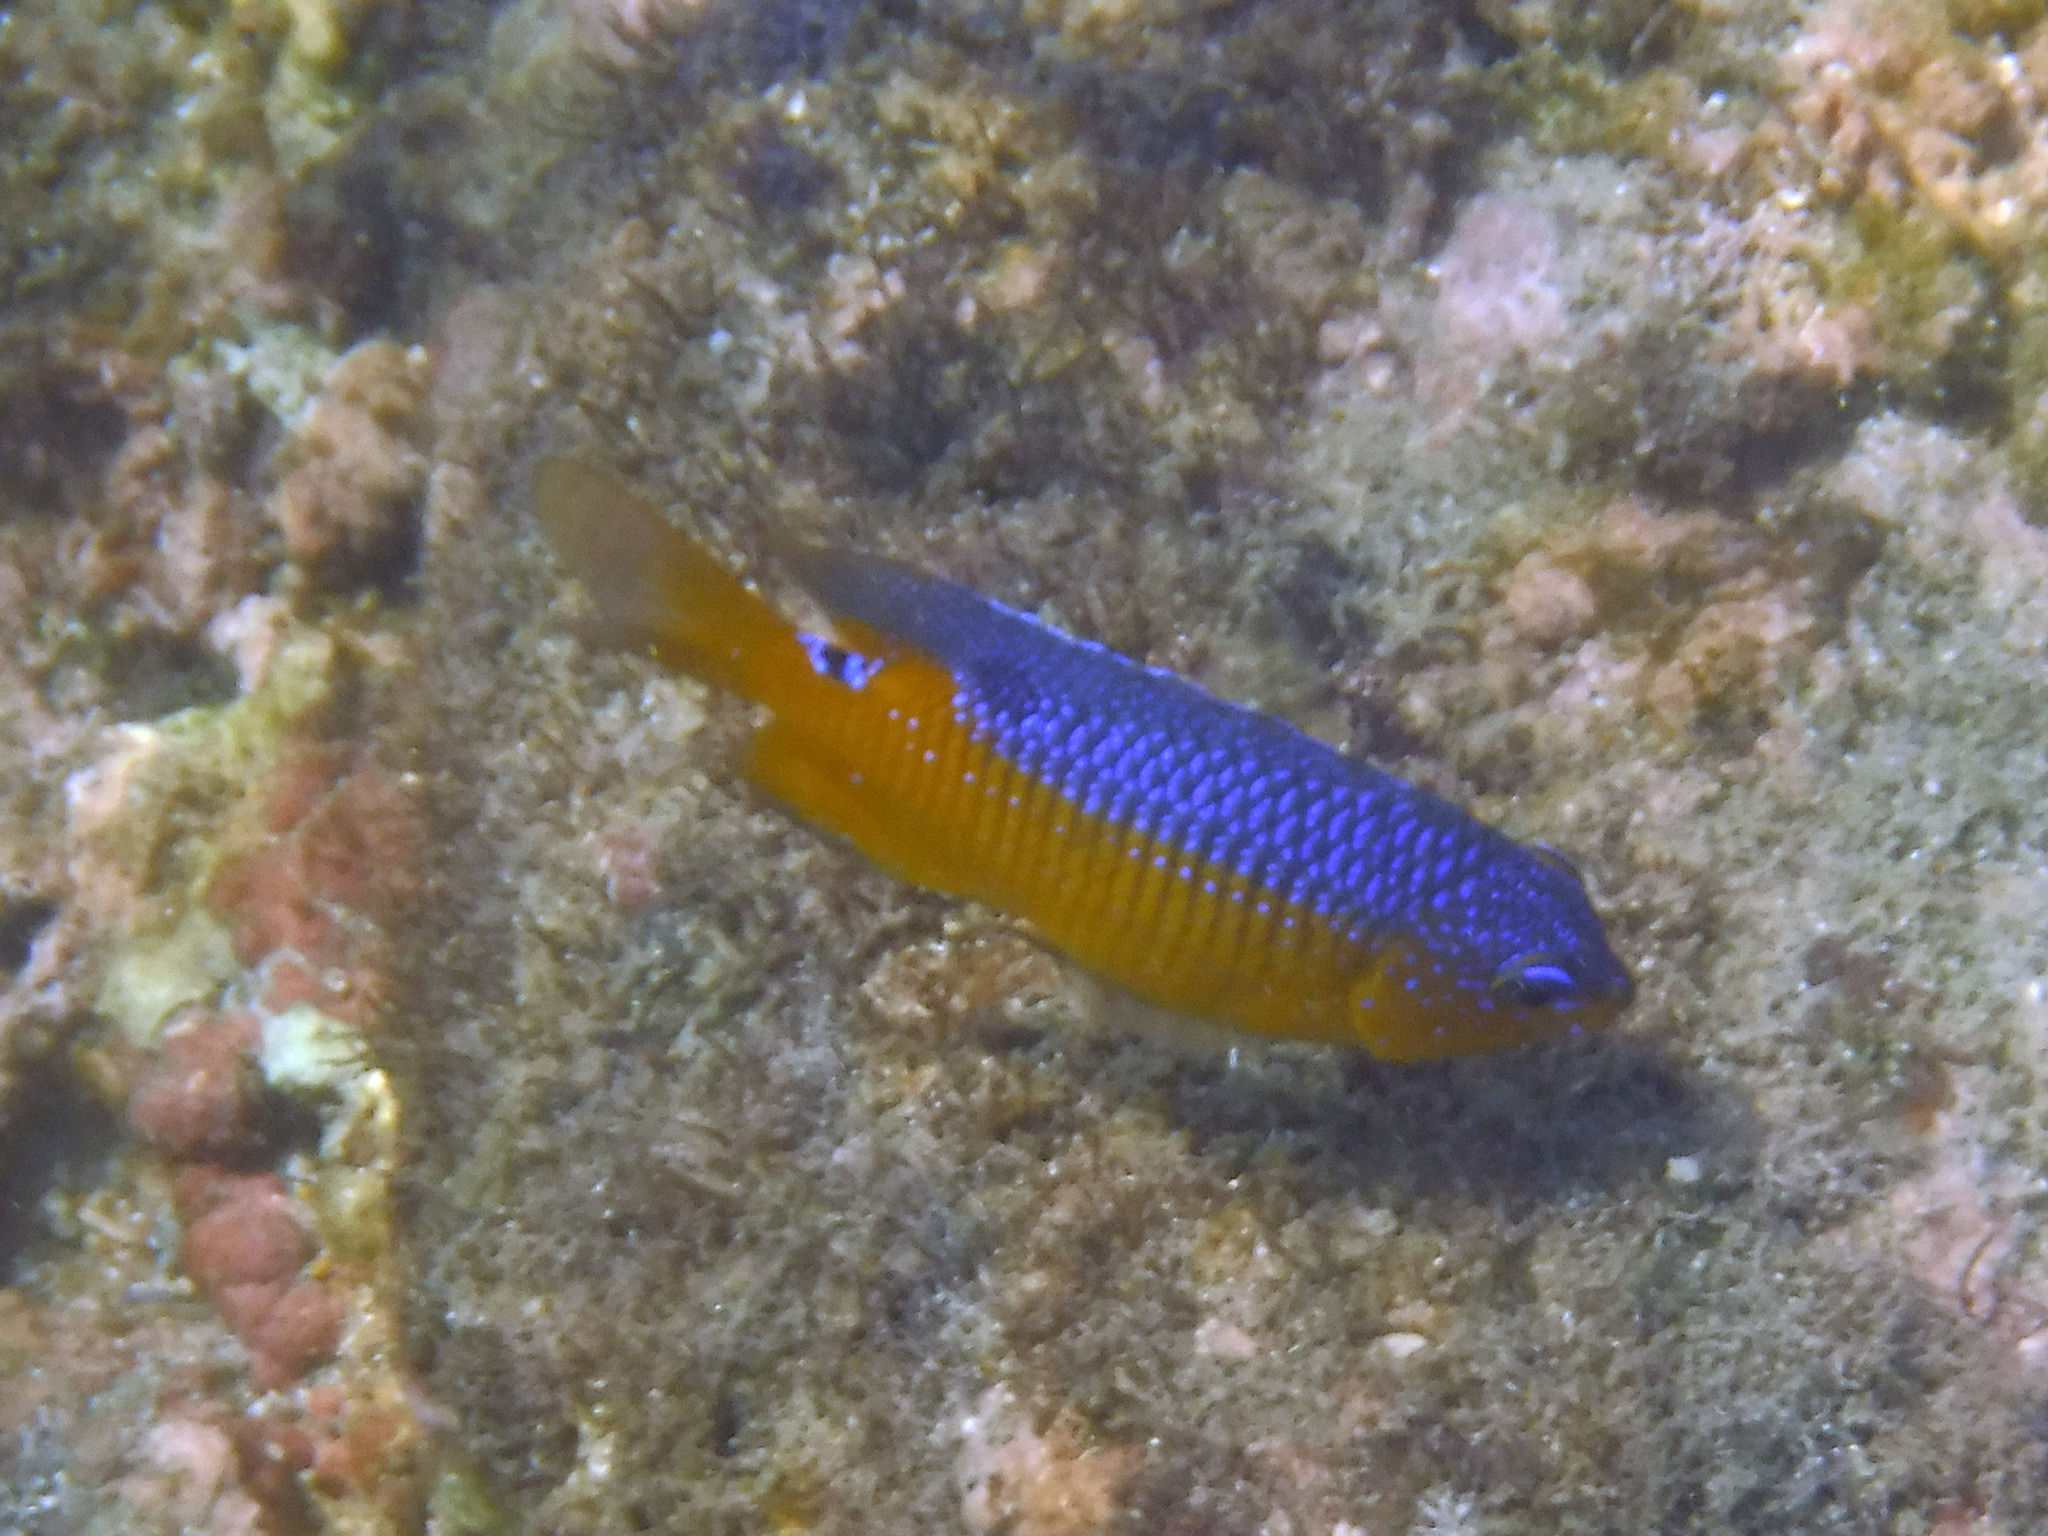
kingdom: Animalia
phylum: Chordata
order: Perciformes
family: Pomacentridae
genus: Stegastes
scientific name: Stegastes flavilatus
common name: Beaubrummel
